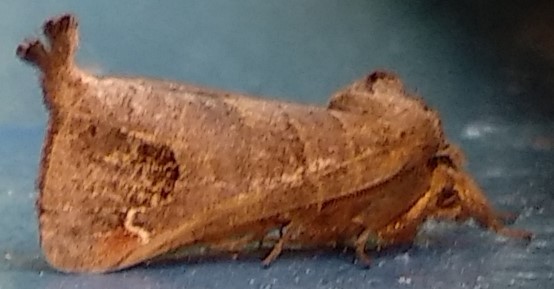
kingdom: Animalia
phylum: Arthropoda
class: Insecta
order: Lepidoptera
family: Notodontidae
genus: Clostera
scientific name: Clostera albosigma
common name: Sigmoid prominent
